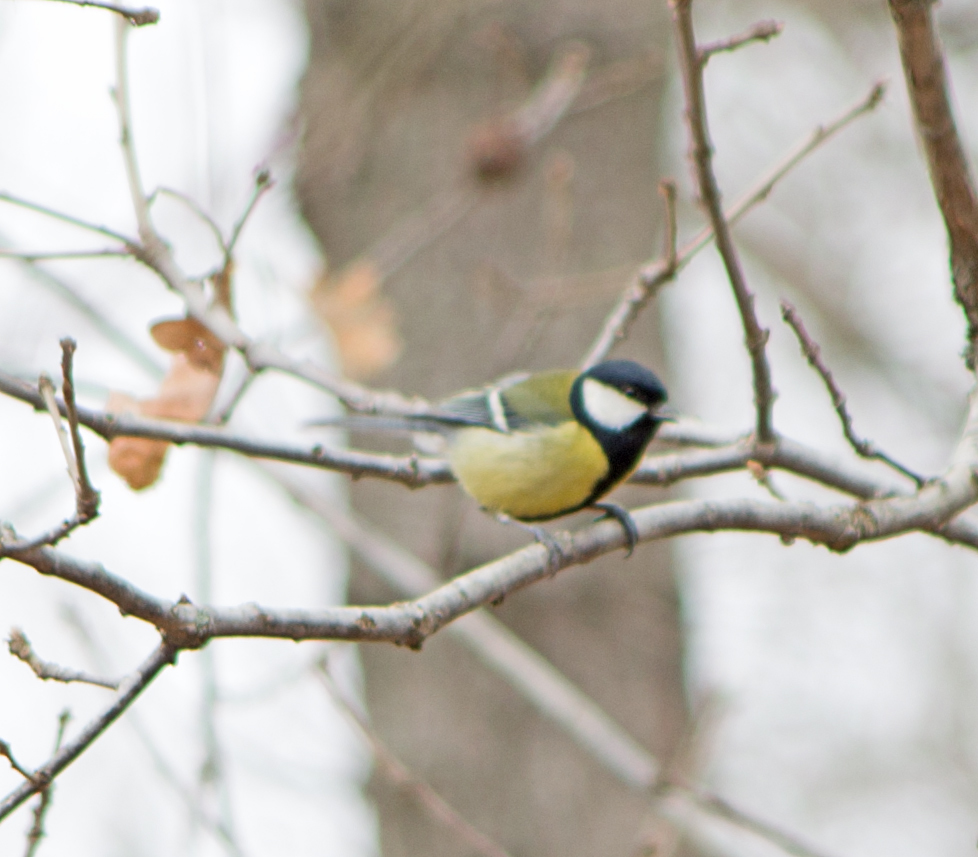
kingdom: Animalia
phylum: Chordata
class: Aves
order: Passeriformes
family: Paridae
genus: Parus
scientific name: Parus major
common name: Great tit
